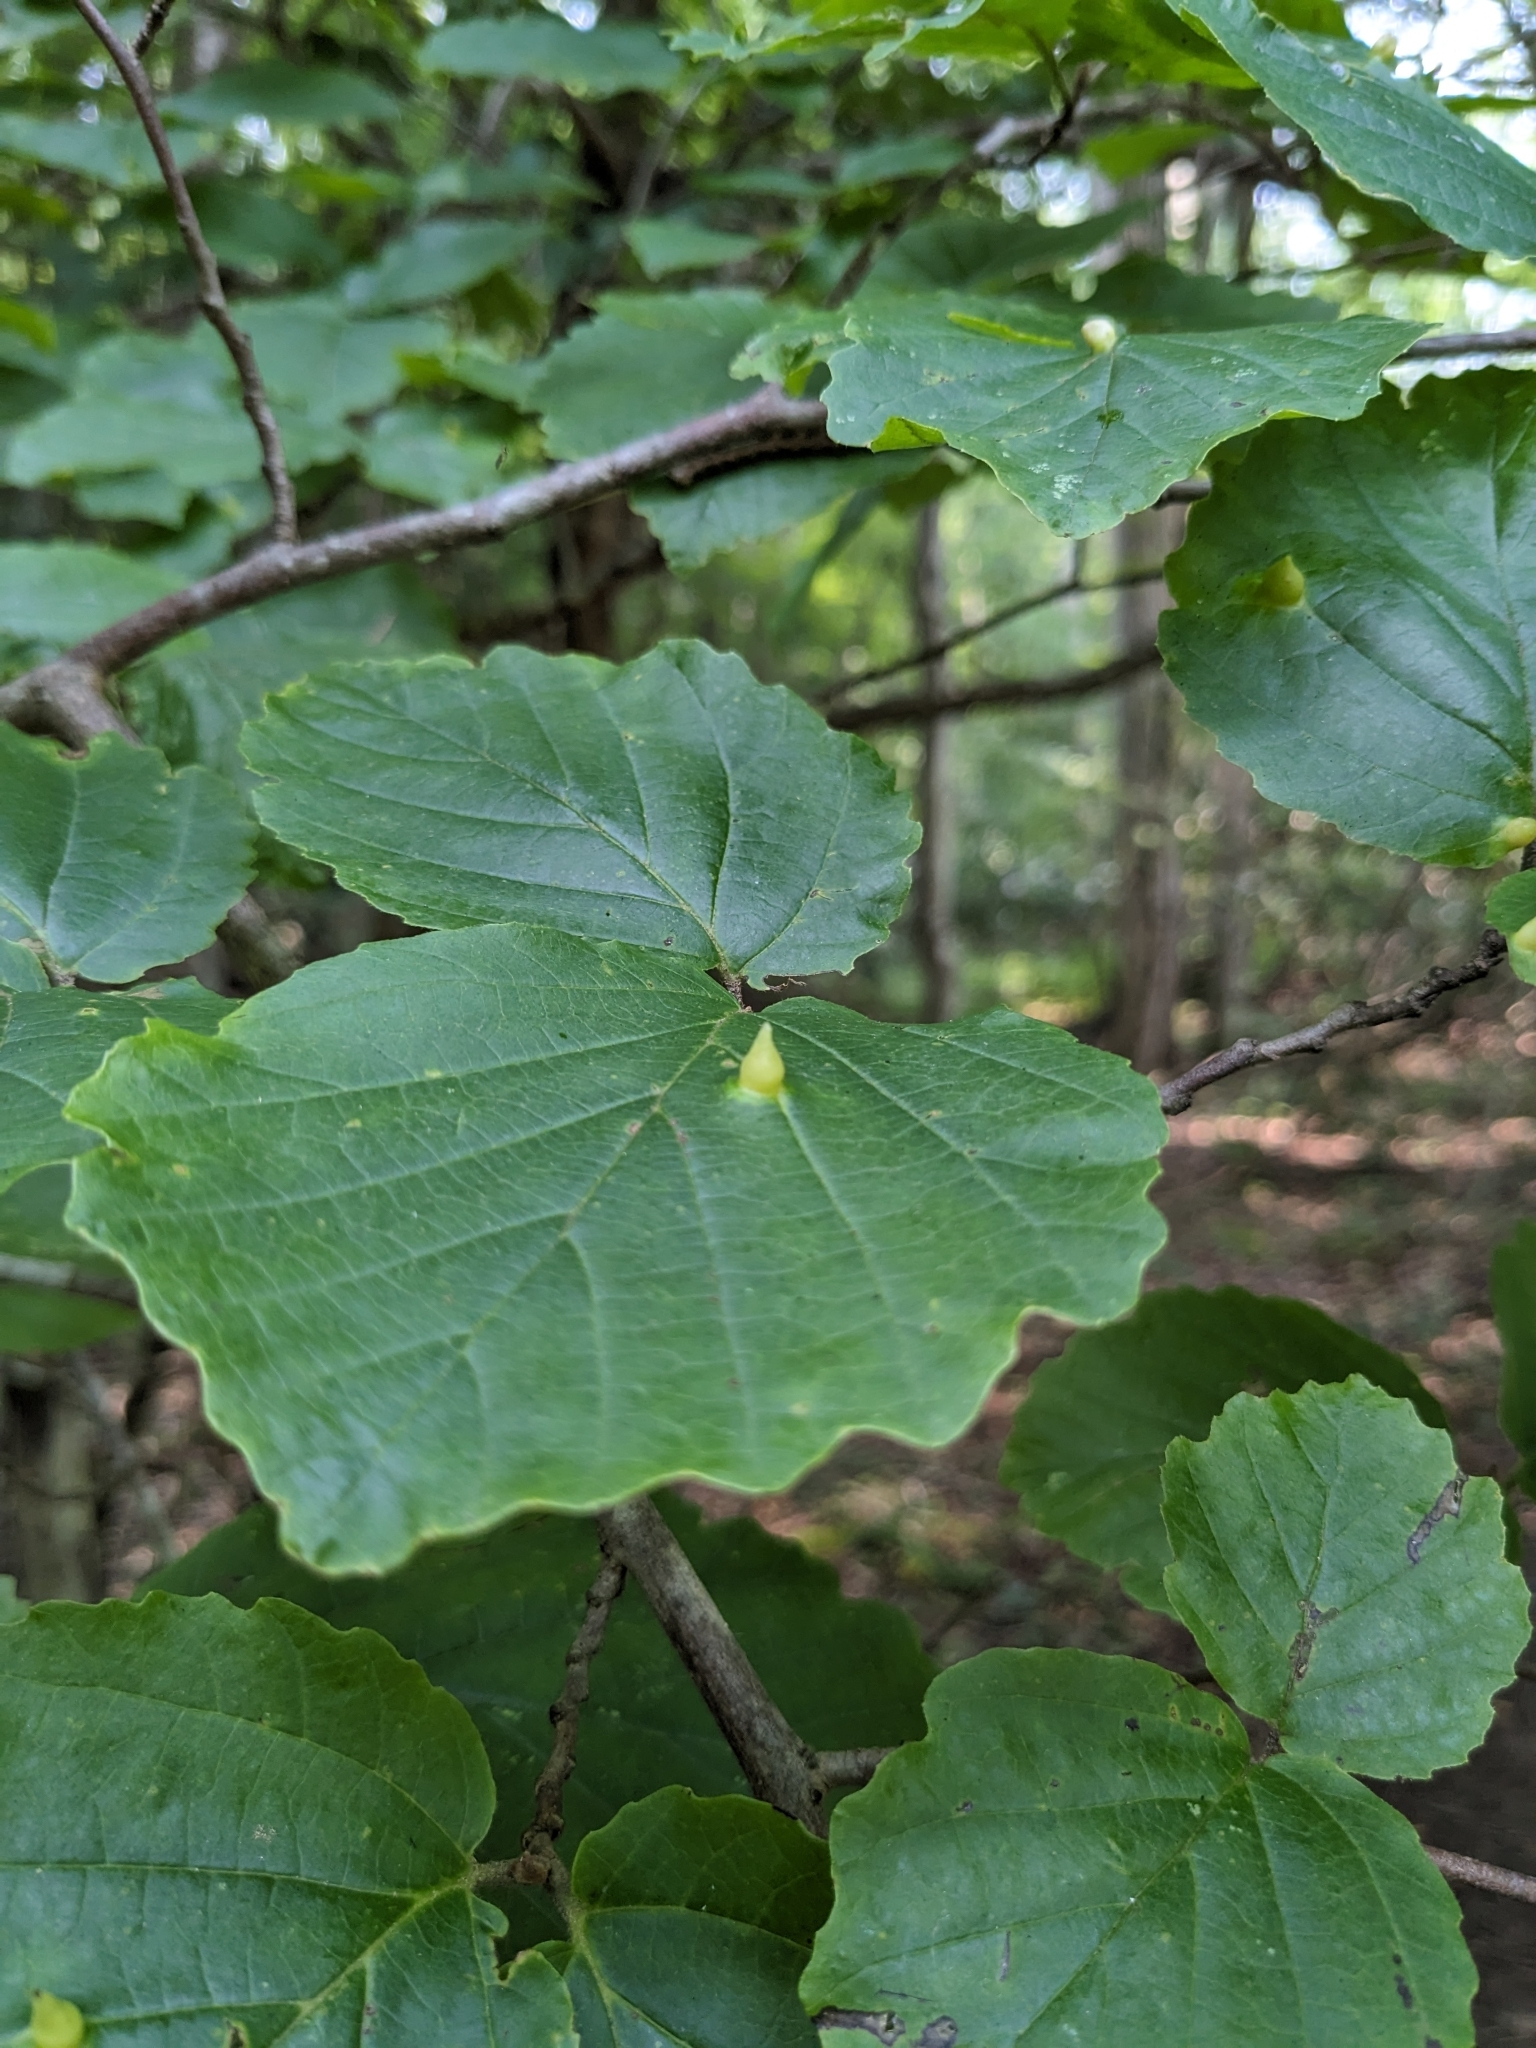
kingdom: Animalia
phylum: Arthropoda
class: Insecta
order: Hemiptera
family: Aphididae
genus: Hormaphis
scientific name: Hormaphis hamamelidis
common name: Witch-hazel cone gall aphid
